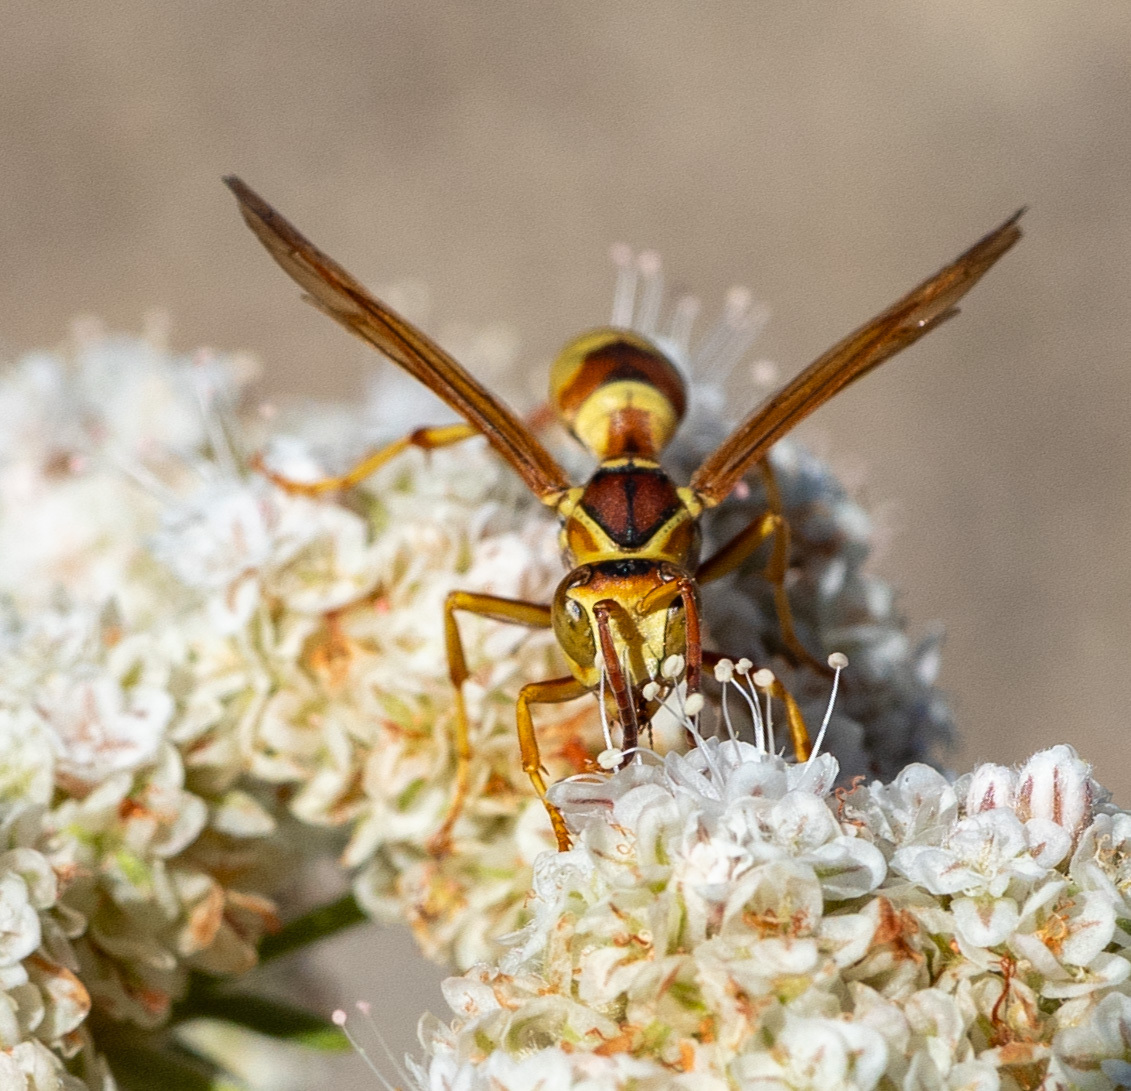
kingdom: Animalia
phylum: Arthropoda
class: Insecta
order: Hymenoptera
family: Eumenidae
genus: Polistes
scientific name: Polistes dorsalis
